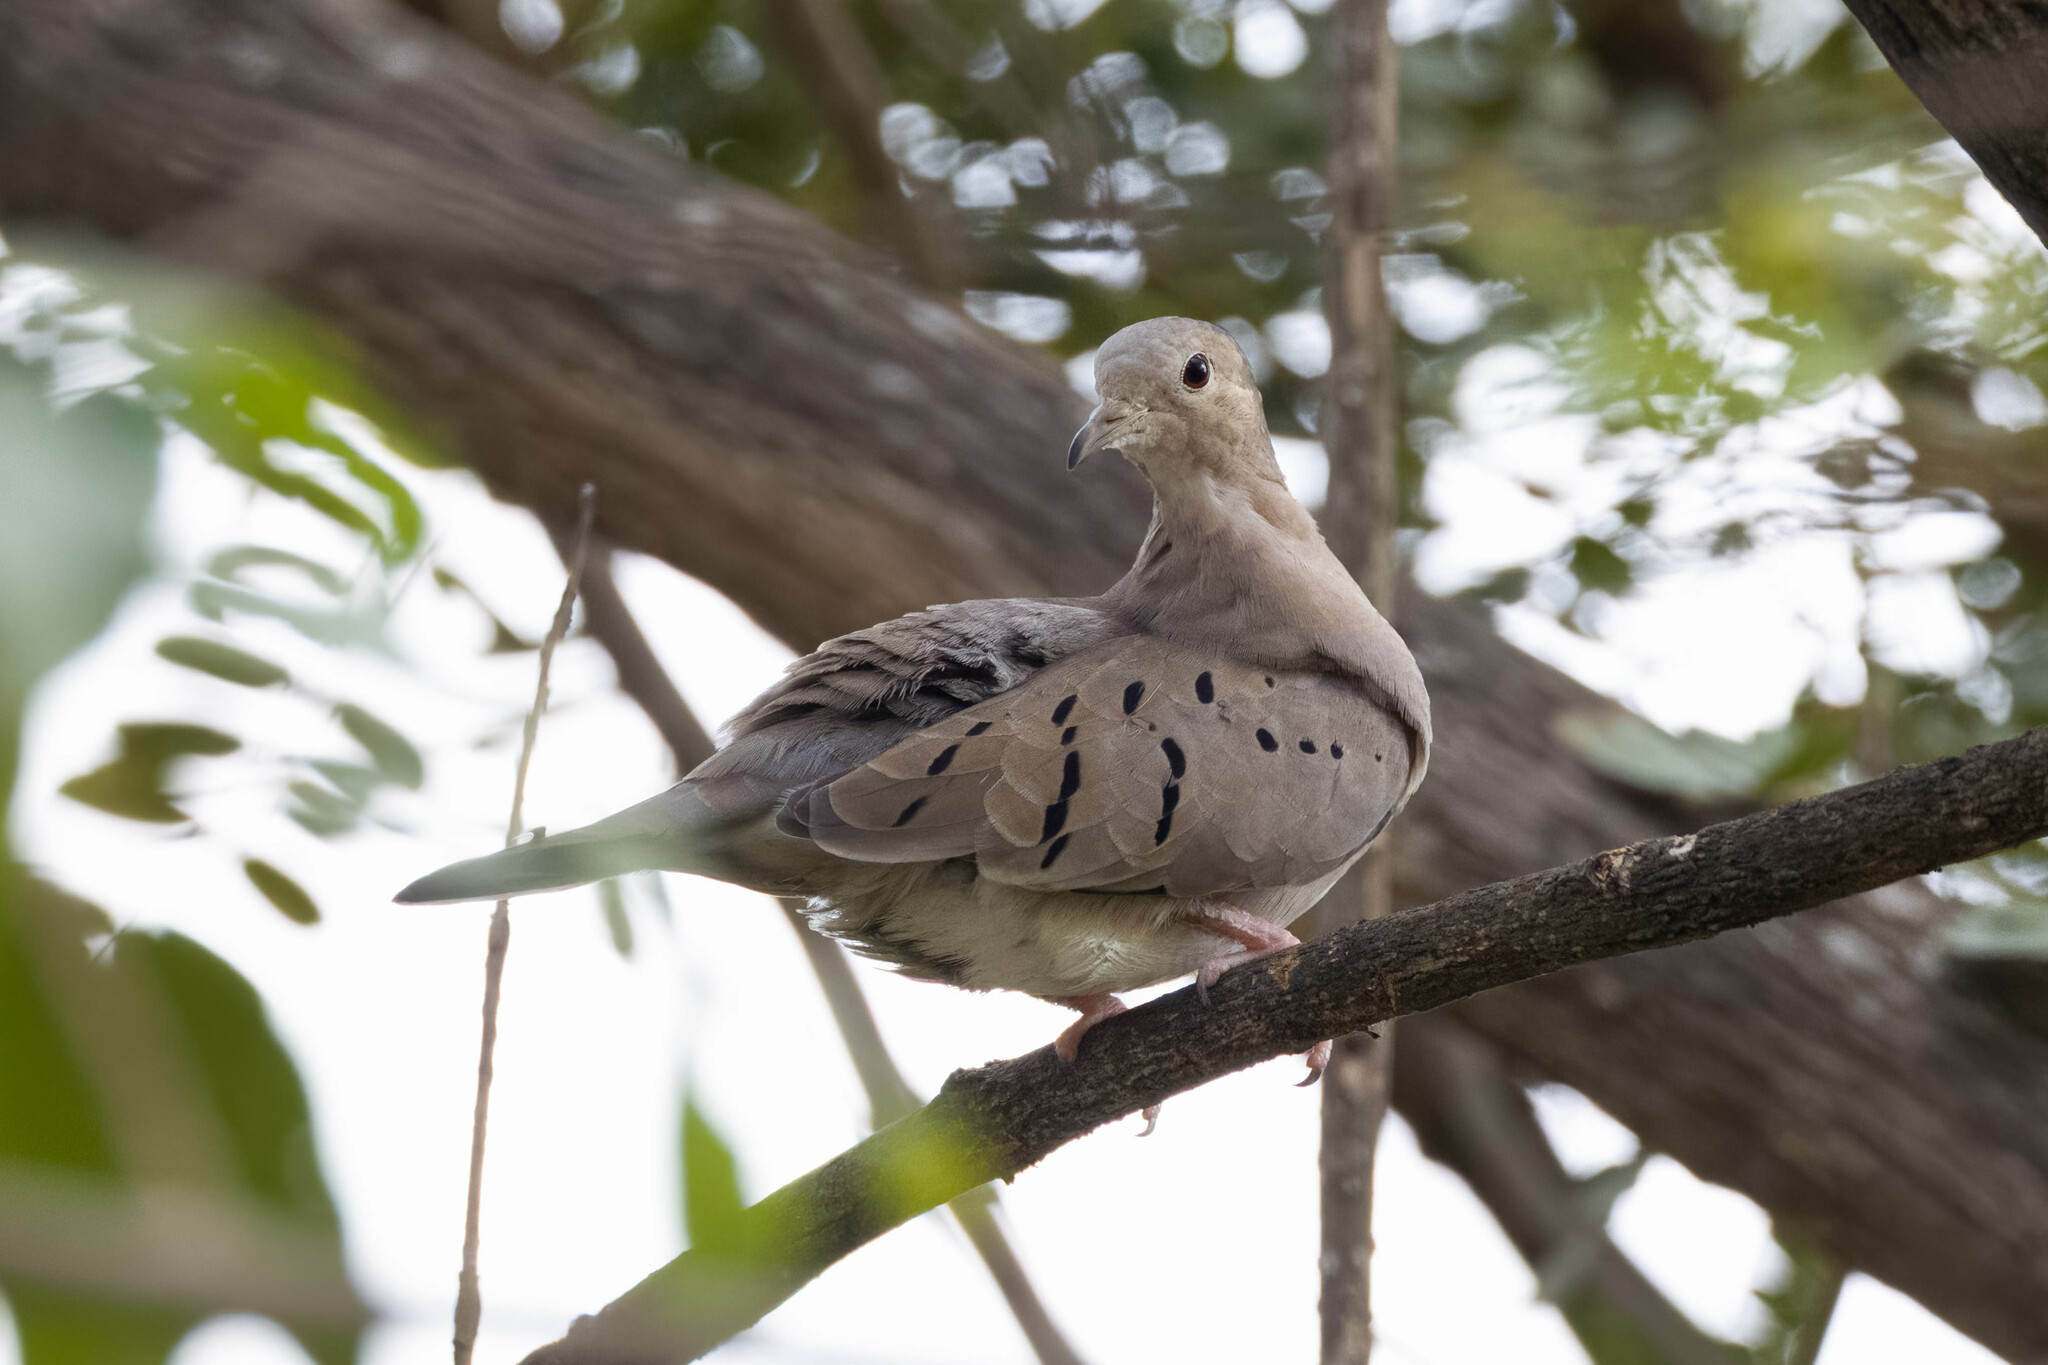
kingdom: Animalia
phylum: Chordata
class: Aves
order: Columbiformes
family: Columbidae
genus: Columbina
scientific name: Columbina buckleyi
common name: Ecuadorian ground dove
